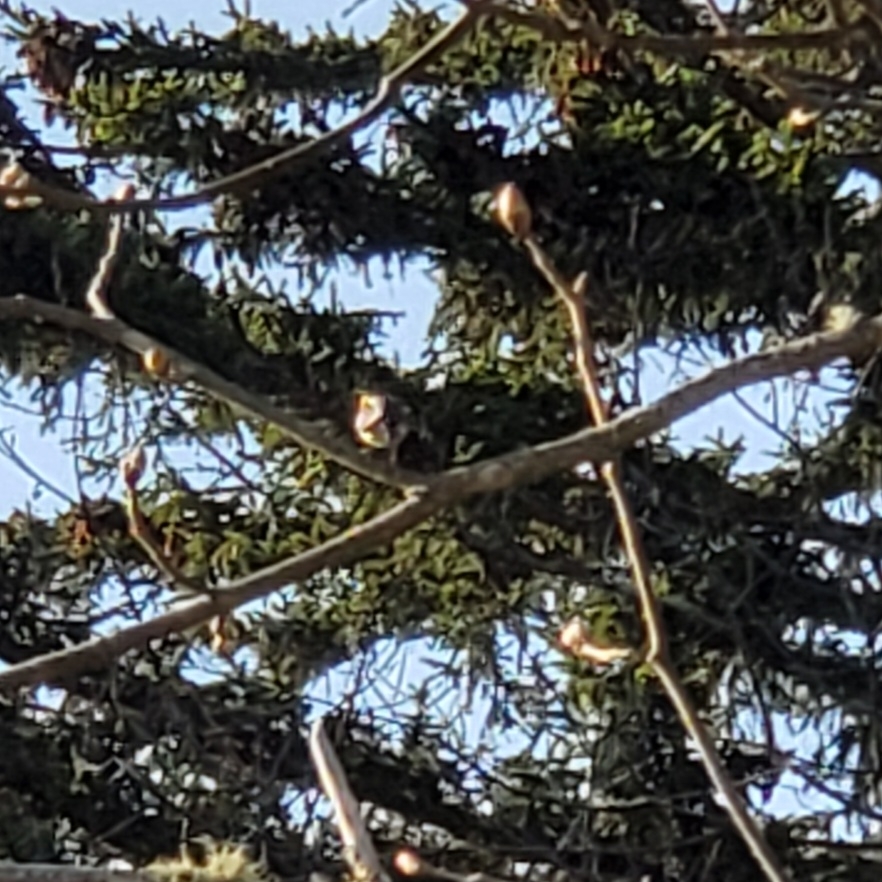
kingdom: Animalia
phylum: Chordata
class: Aves
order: Passeriformes
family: Parulidae
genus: Setophaga
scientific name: Setophaga fusca
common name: Blackburnian warbler
